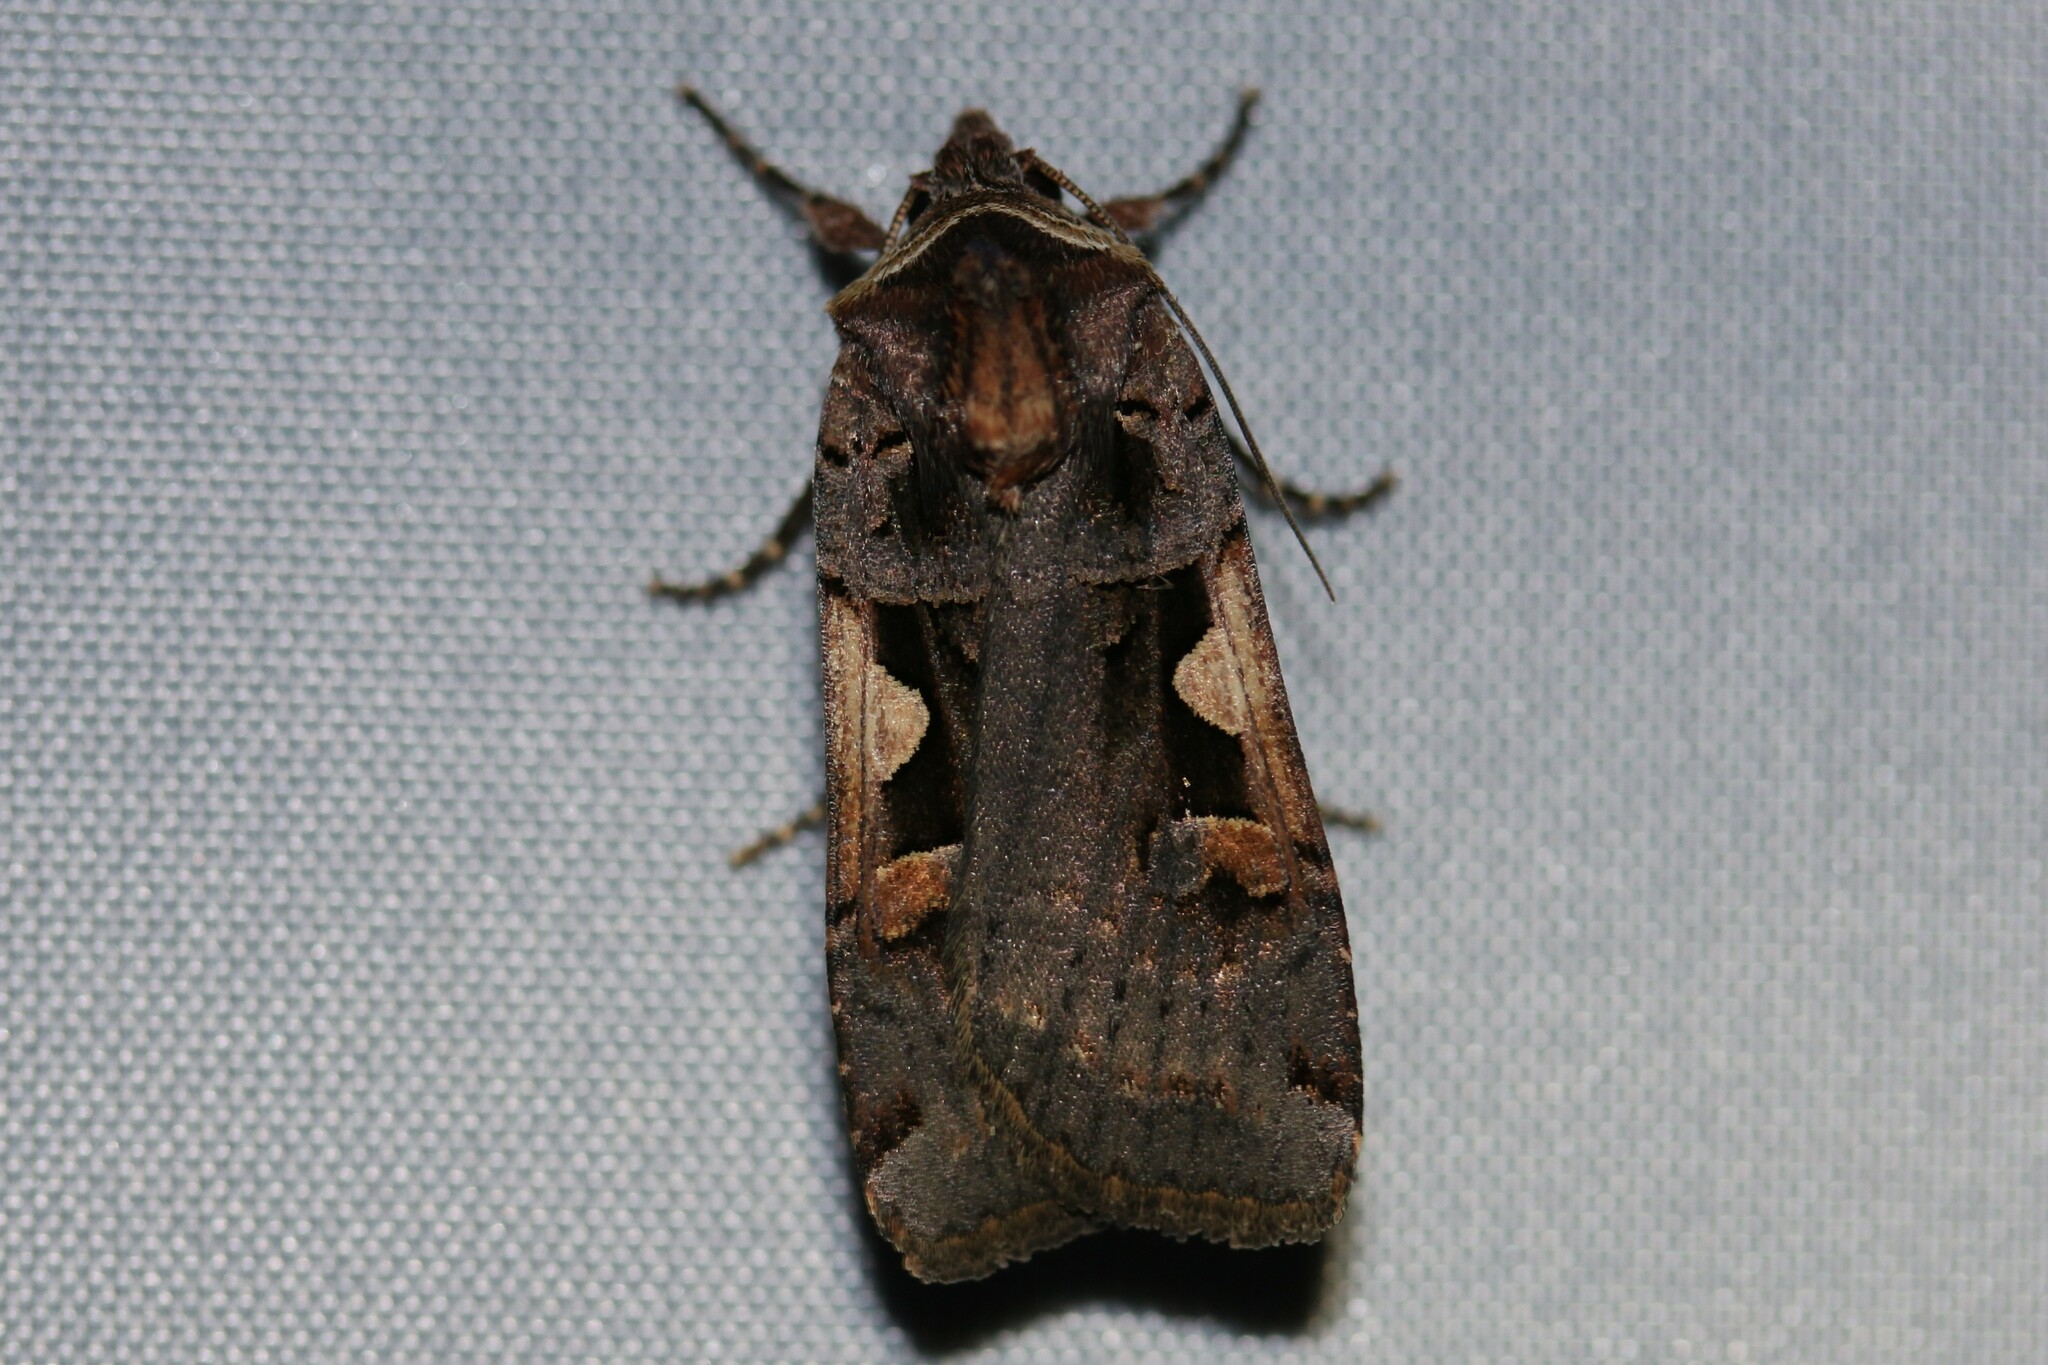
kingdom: Animalia
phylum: Arthropoda
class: Insecta
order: Lepidoptera
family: Noctuidae
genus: Xestia
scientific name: Xestia c-nigrum
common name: Setaceous hebrew character
